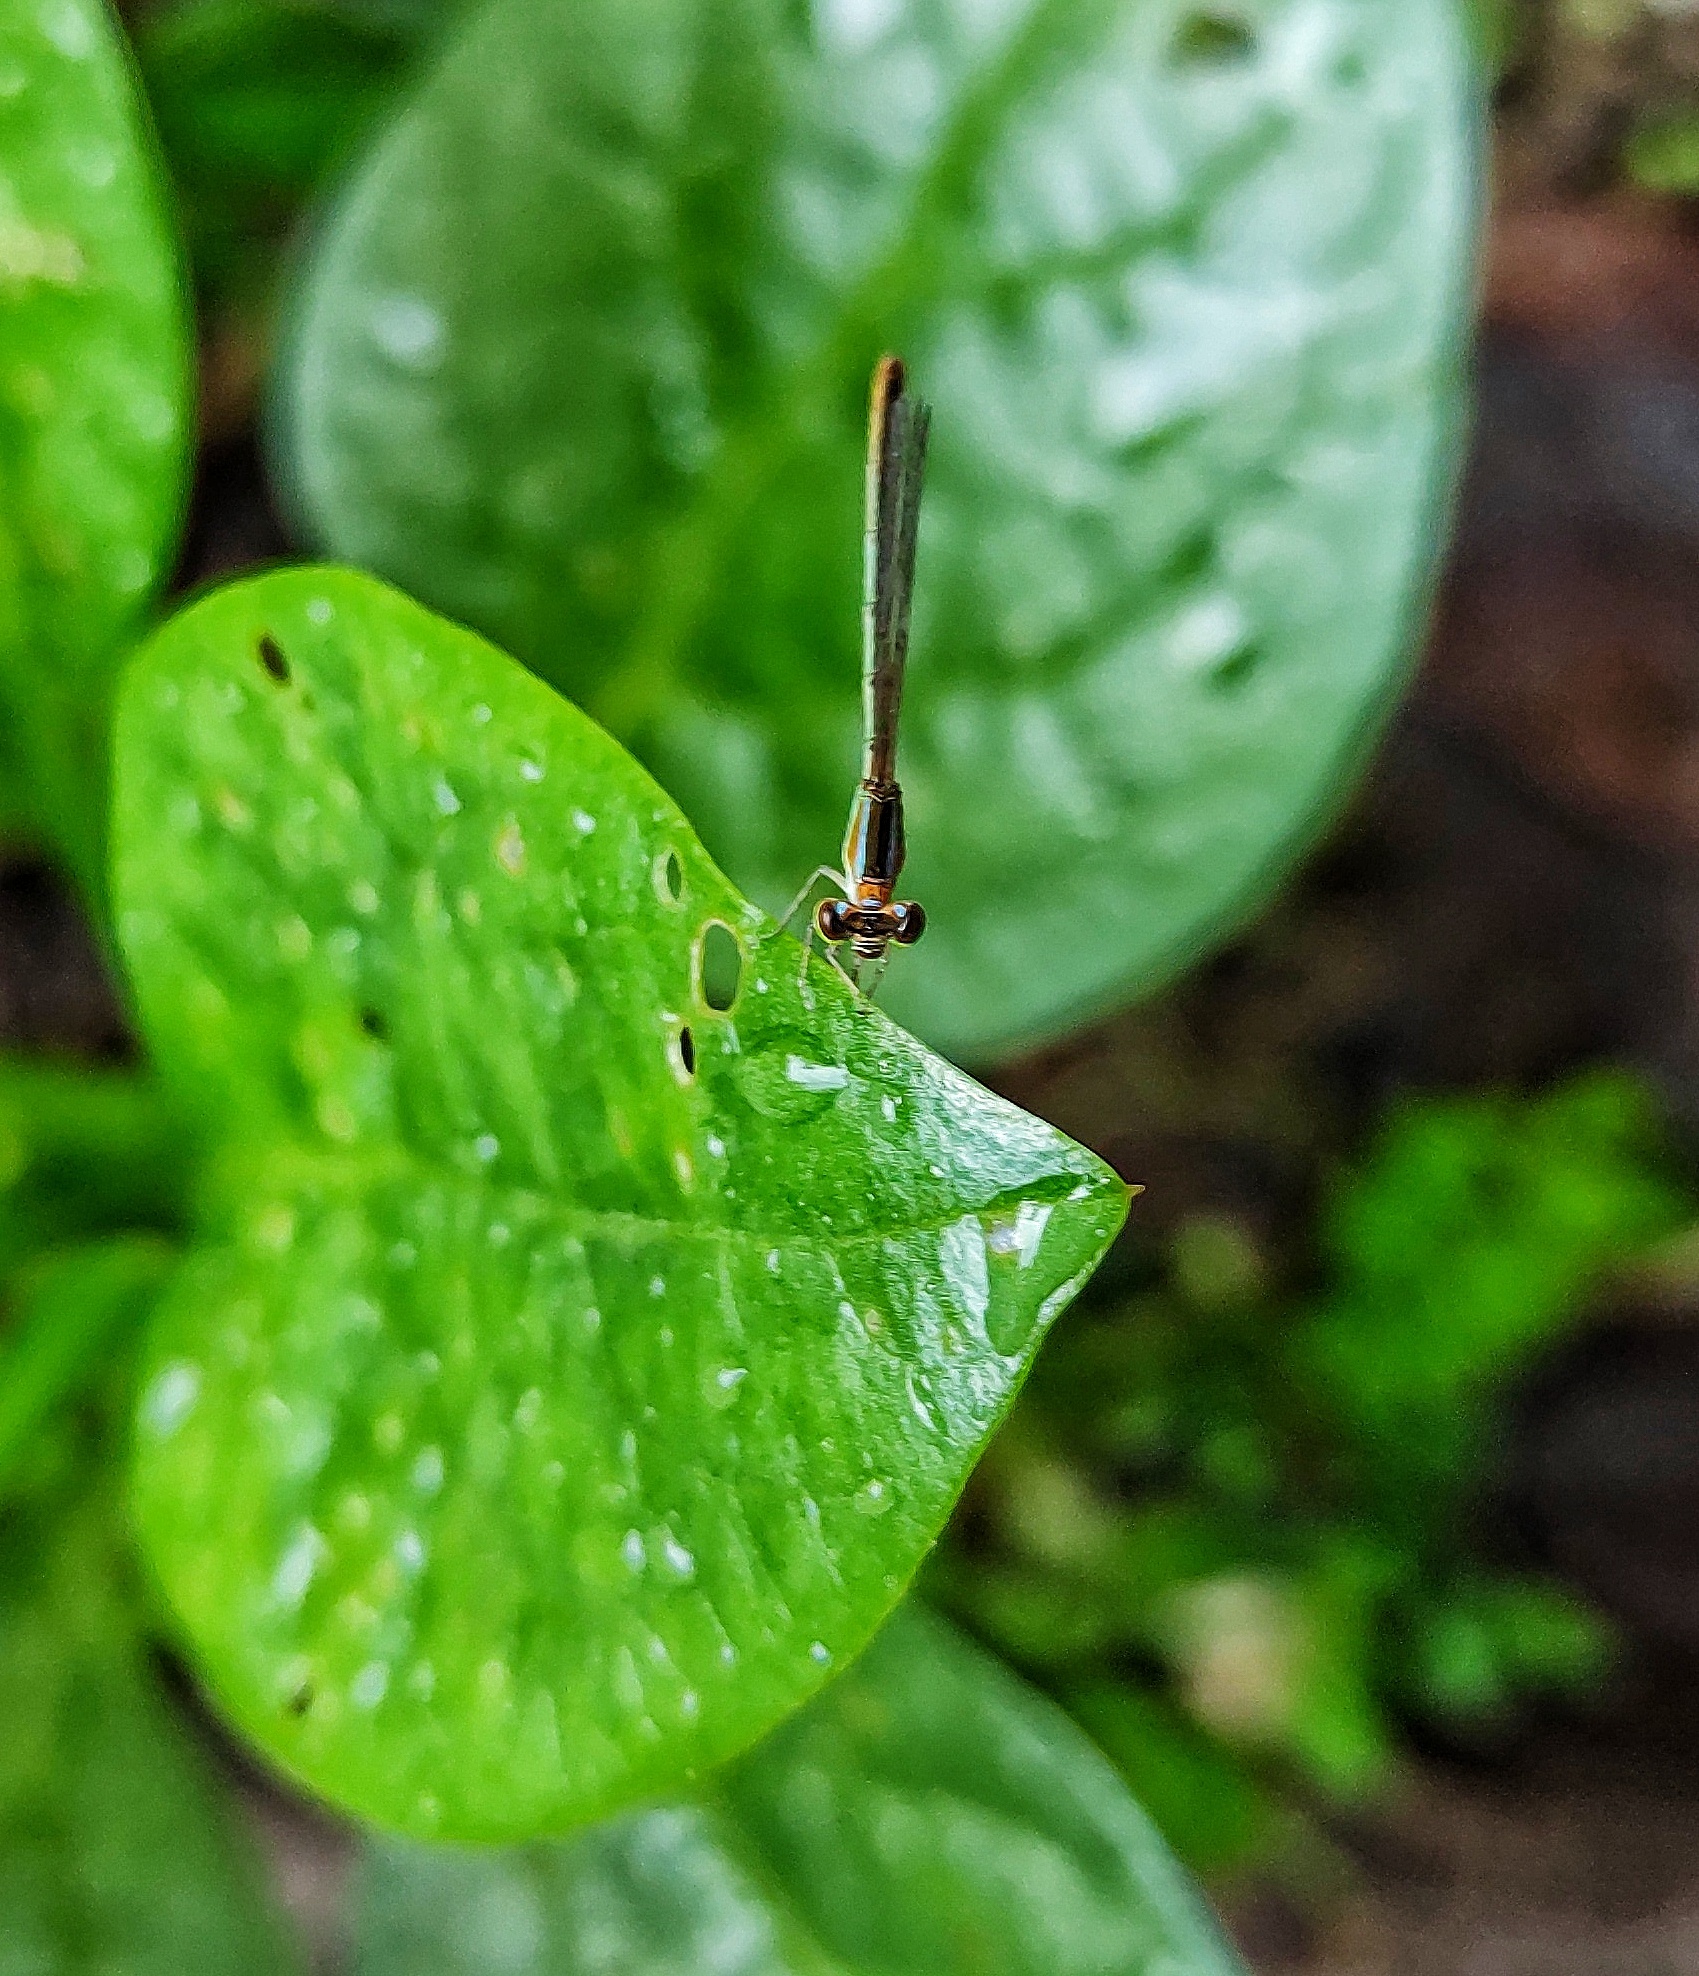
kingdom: Animalia
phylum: Arthropoda
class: Insecta
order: Odonata
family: Coenagrionidae
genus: Agriocnemis
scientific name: Agriocnemis pygmaea
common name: Pygmy wisp
